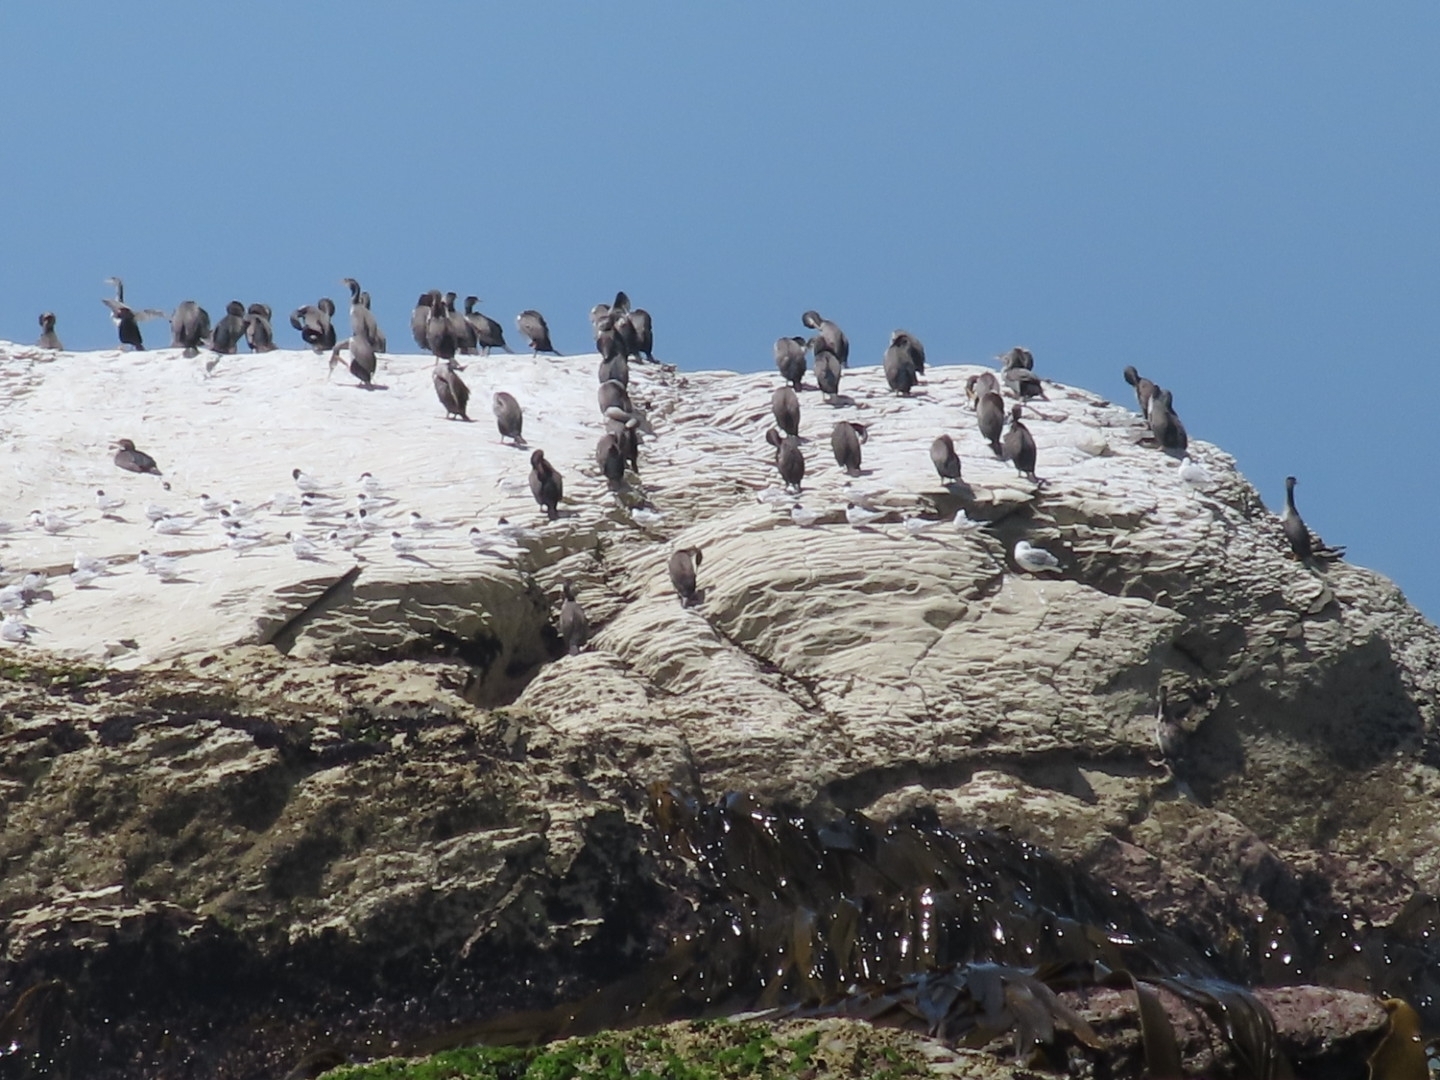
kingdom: Animalia
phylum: Chordata
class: Aves
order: Suliformes
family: Phalacrocoracidae
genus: Phalacrocorax
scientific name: Phalacrocorax punctatus
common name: Spotted shag
